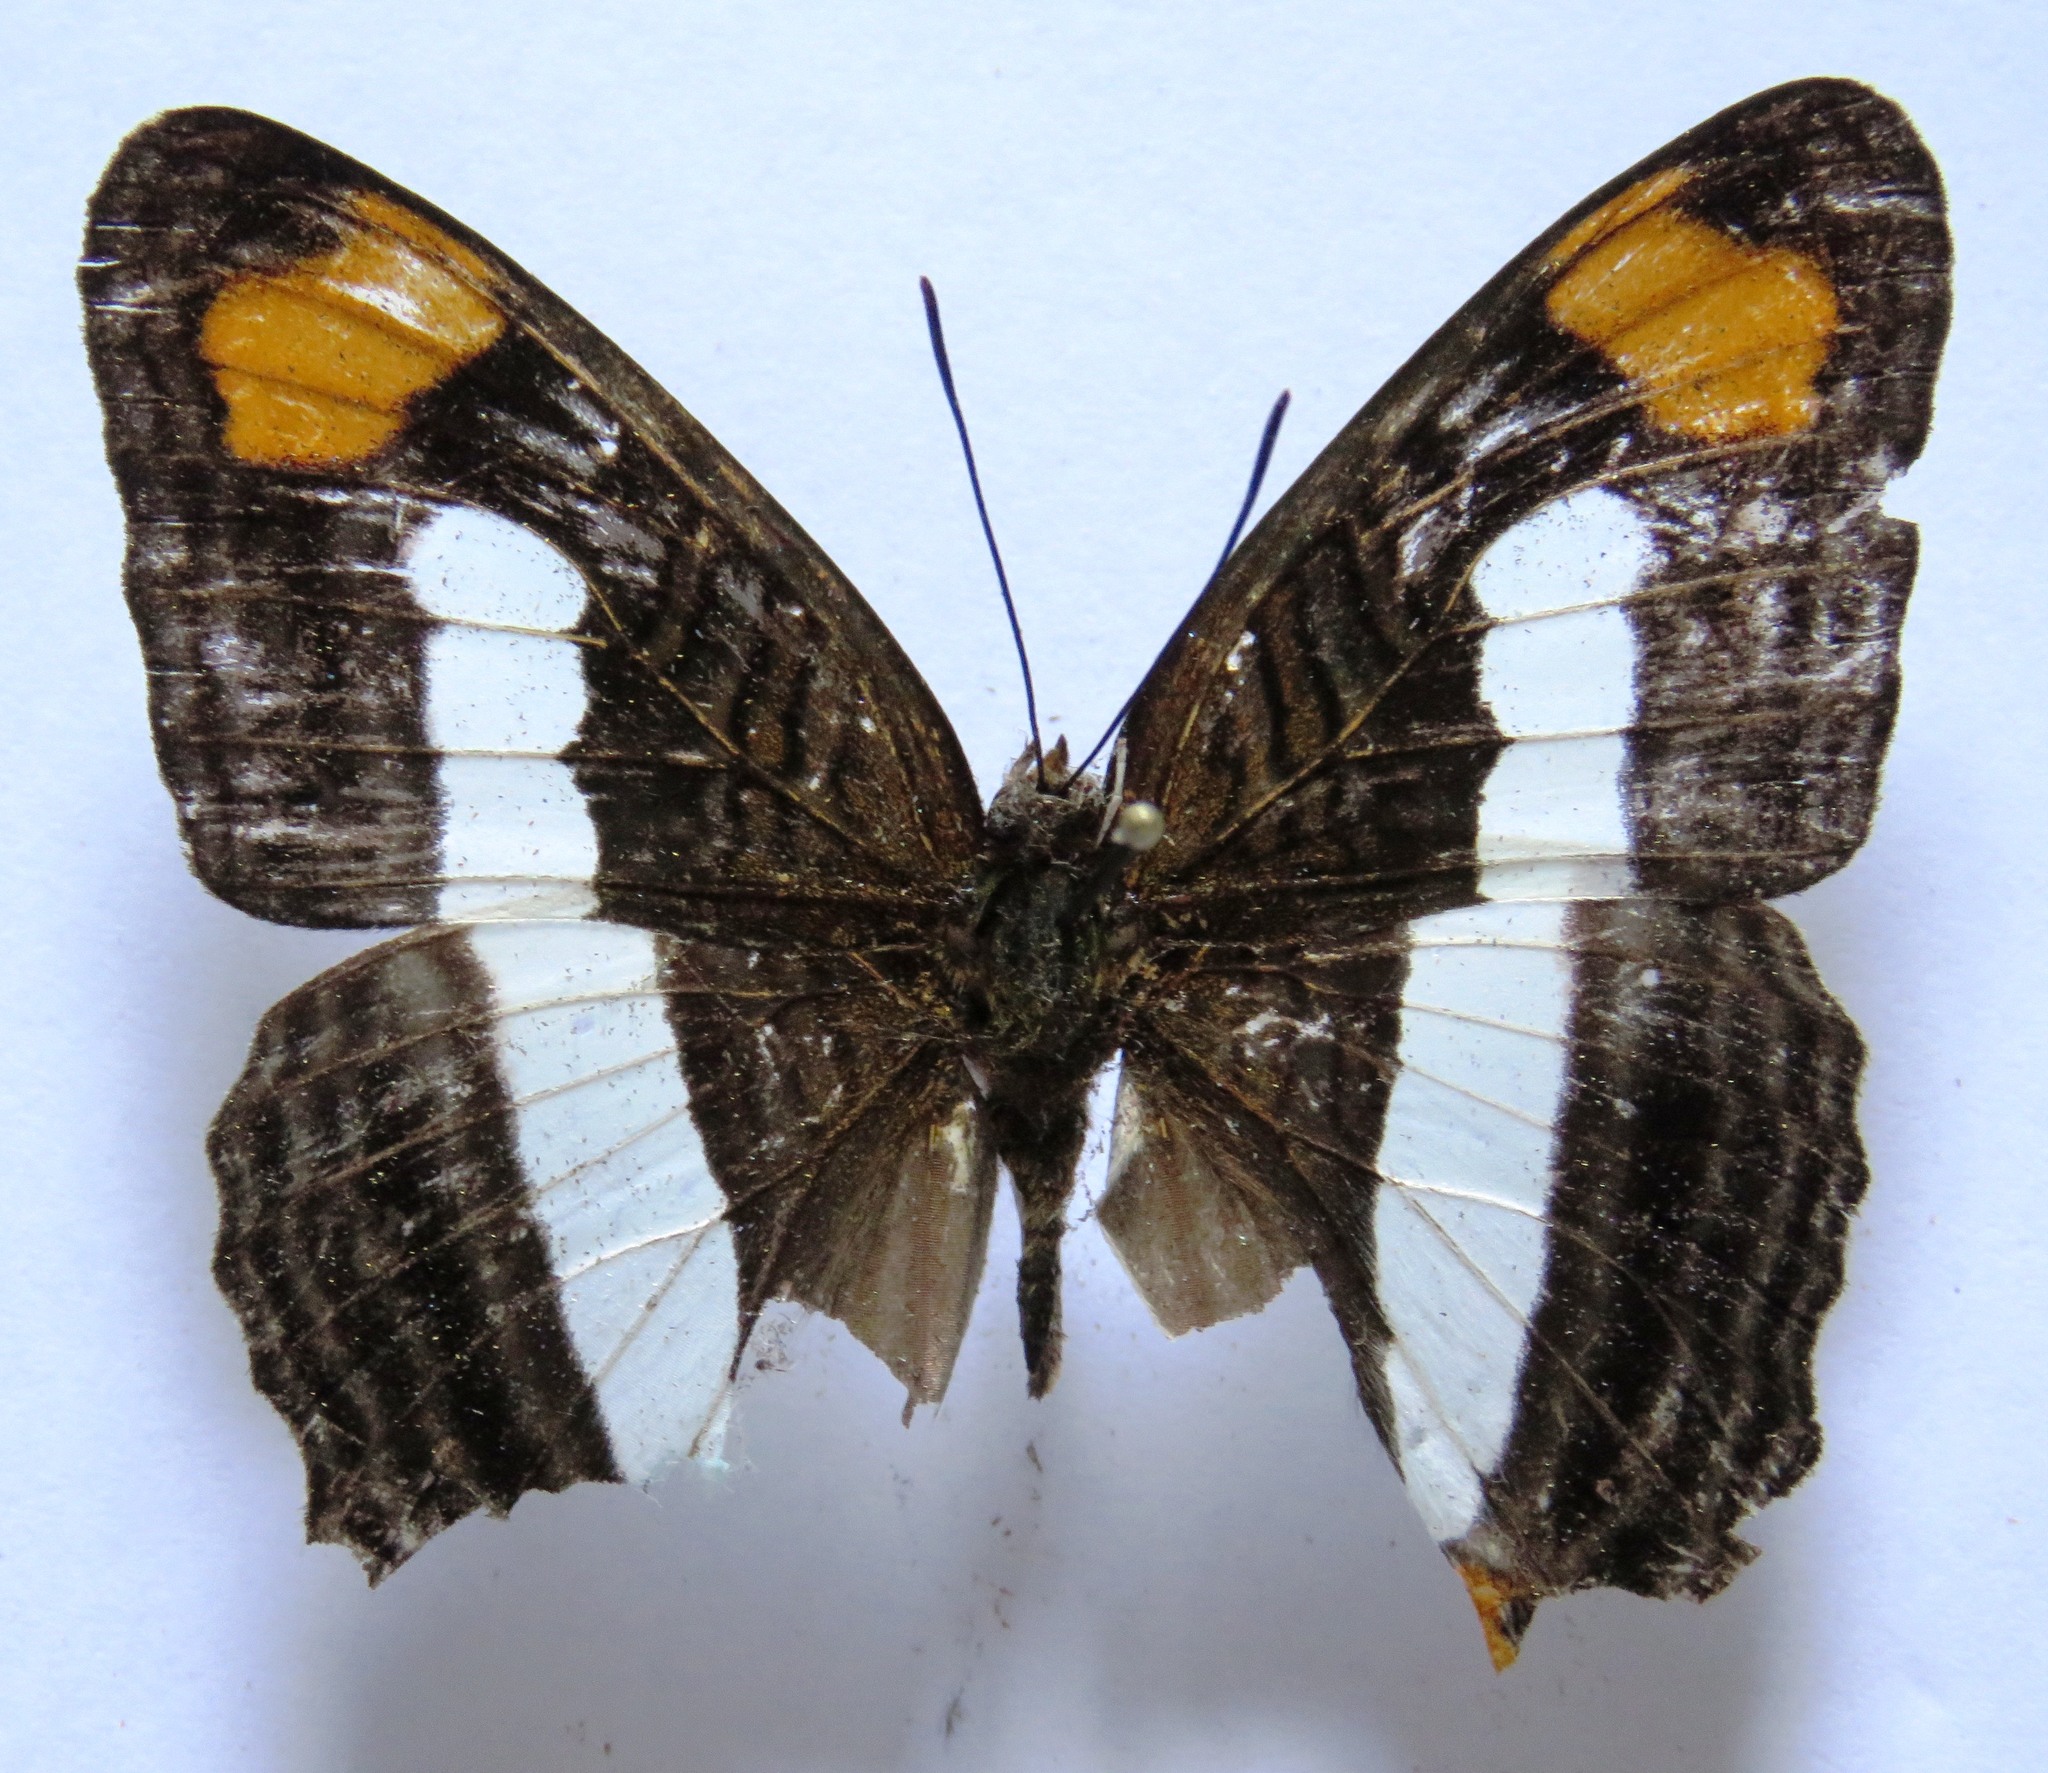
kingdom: Animalia
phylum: Arthropoda
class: Insecta
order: Lepidoptera
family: Nymphalidae
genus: Limenitis
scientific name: Limenitis iphiclus
